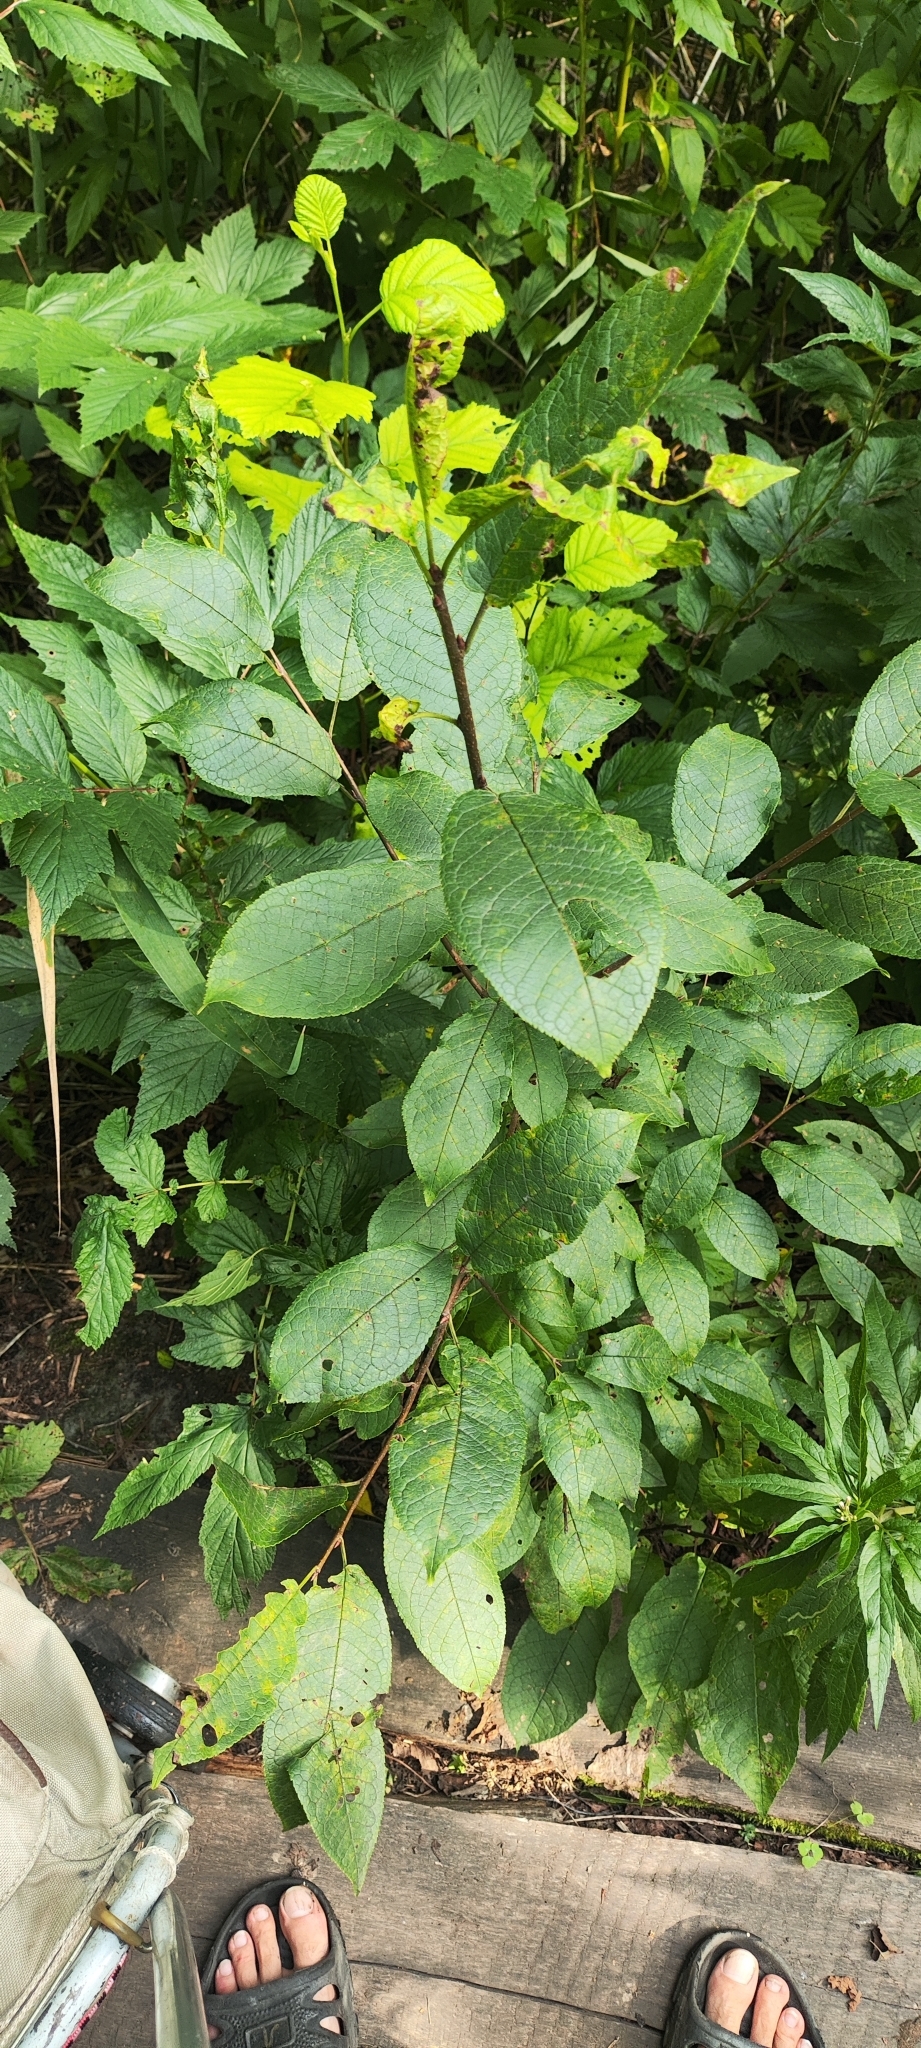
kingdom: Plantae
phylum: Tracheophyta
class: Magnoliopsida
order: Rosales
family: Rosaceae
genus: Prunus
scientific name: Prunus padus
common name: Bird cherry
